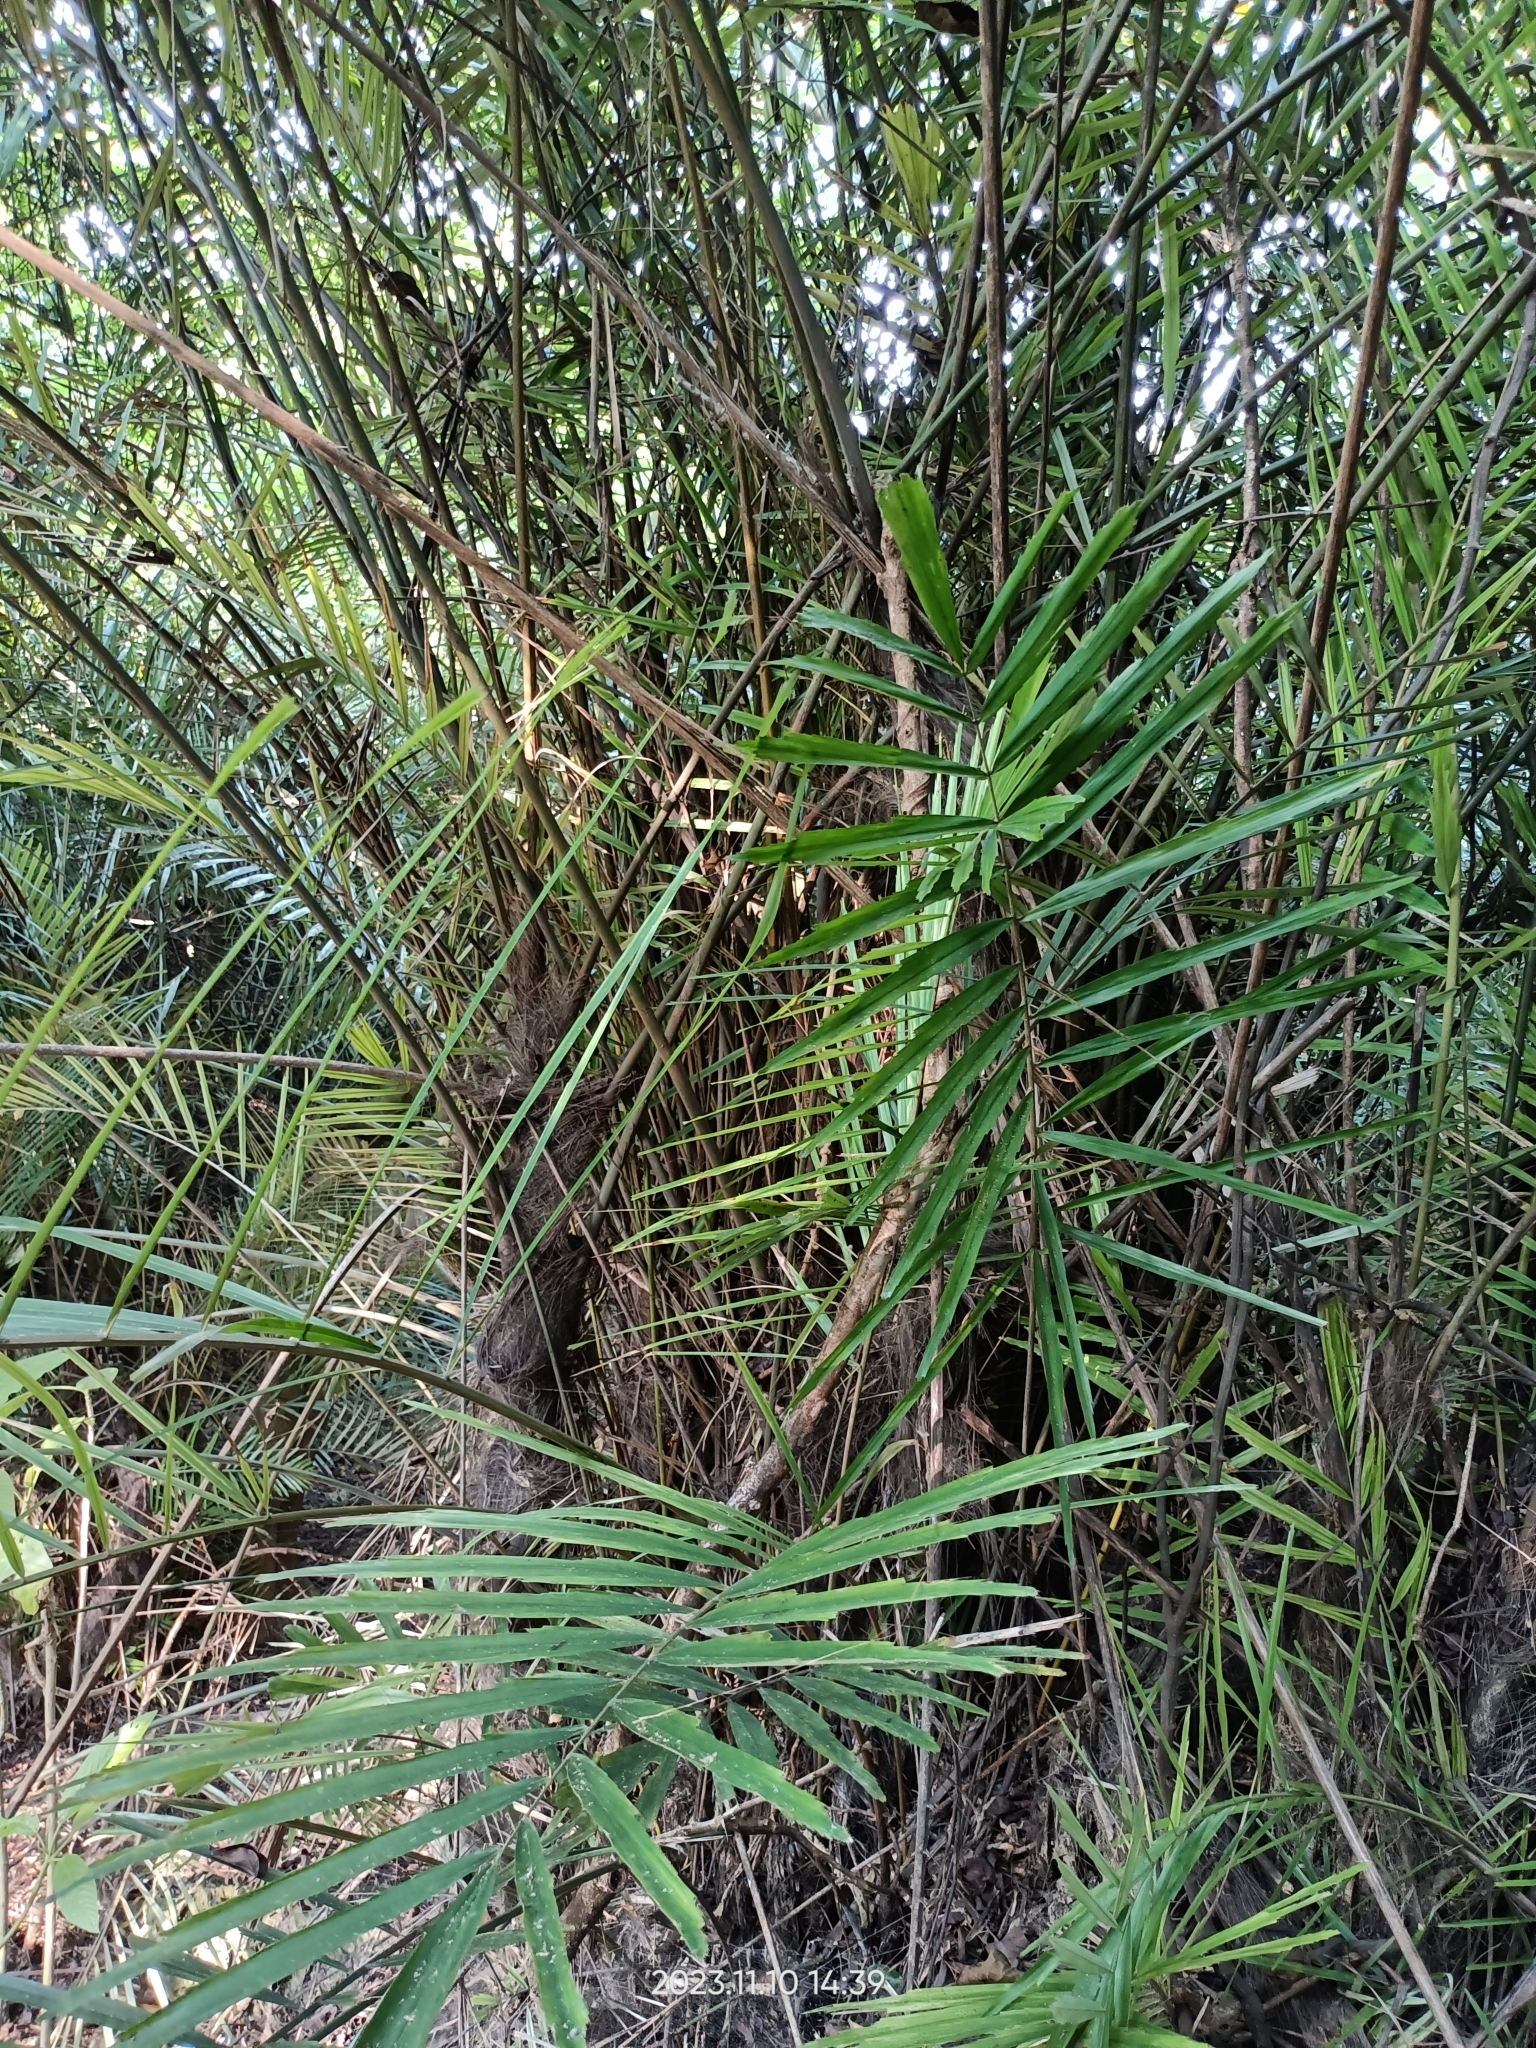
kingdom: Plantae
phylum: Tracheophyta
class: Liliopsida
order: Arecales
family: Arecaceae
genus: Arenga
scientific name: Arenga engleri
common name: Formosan sugar palm
